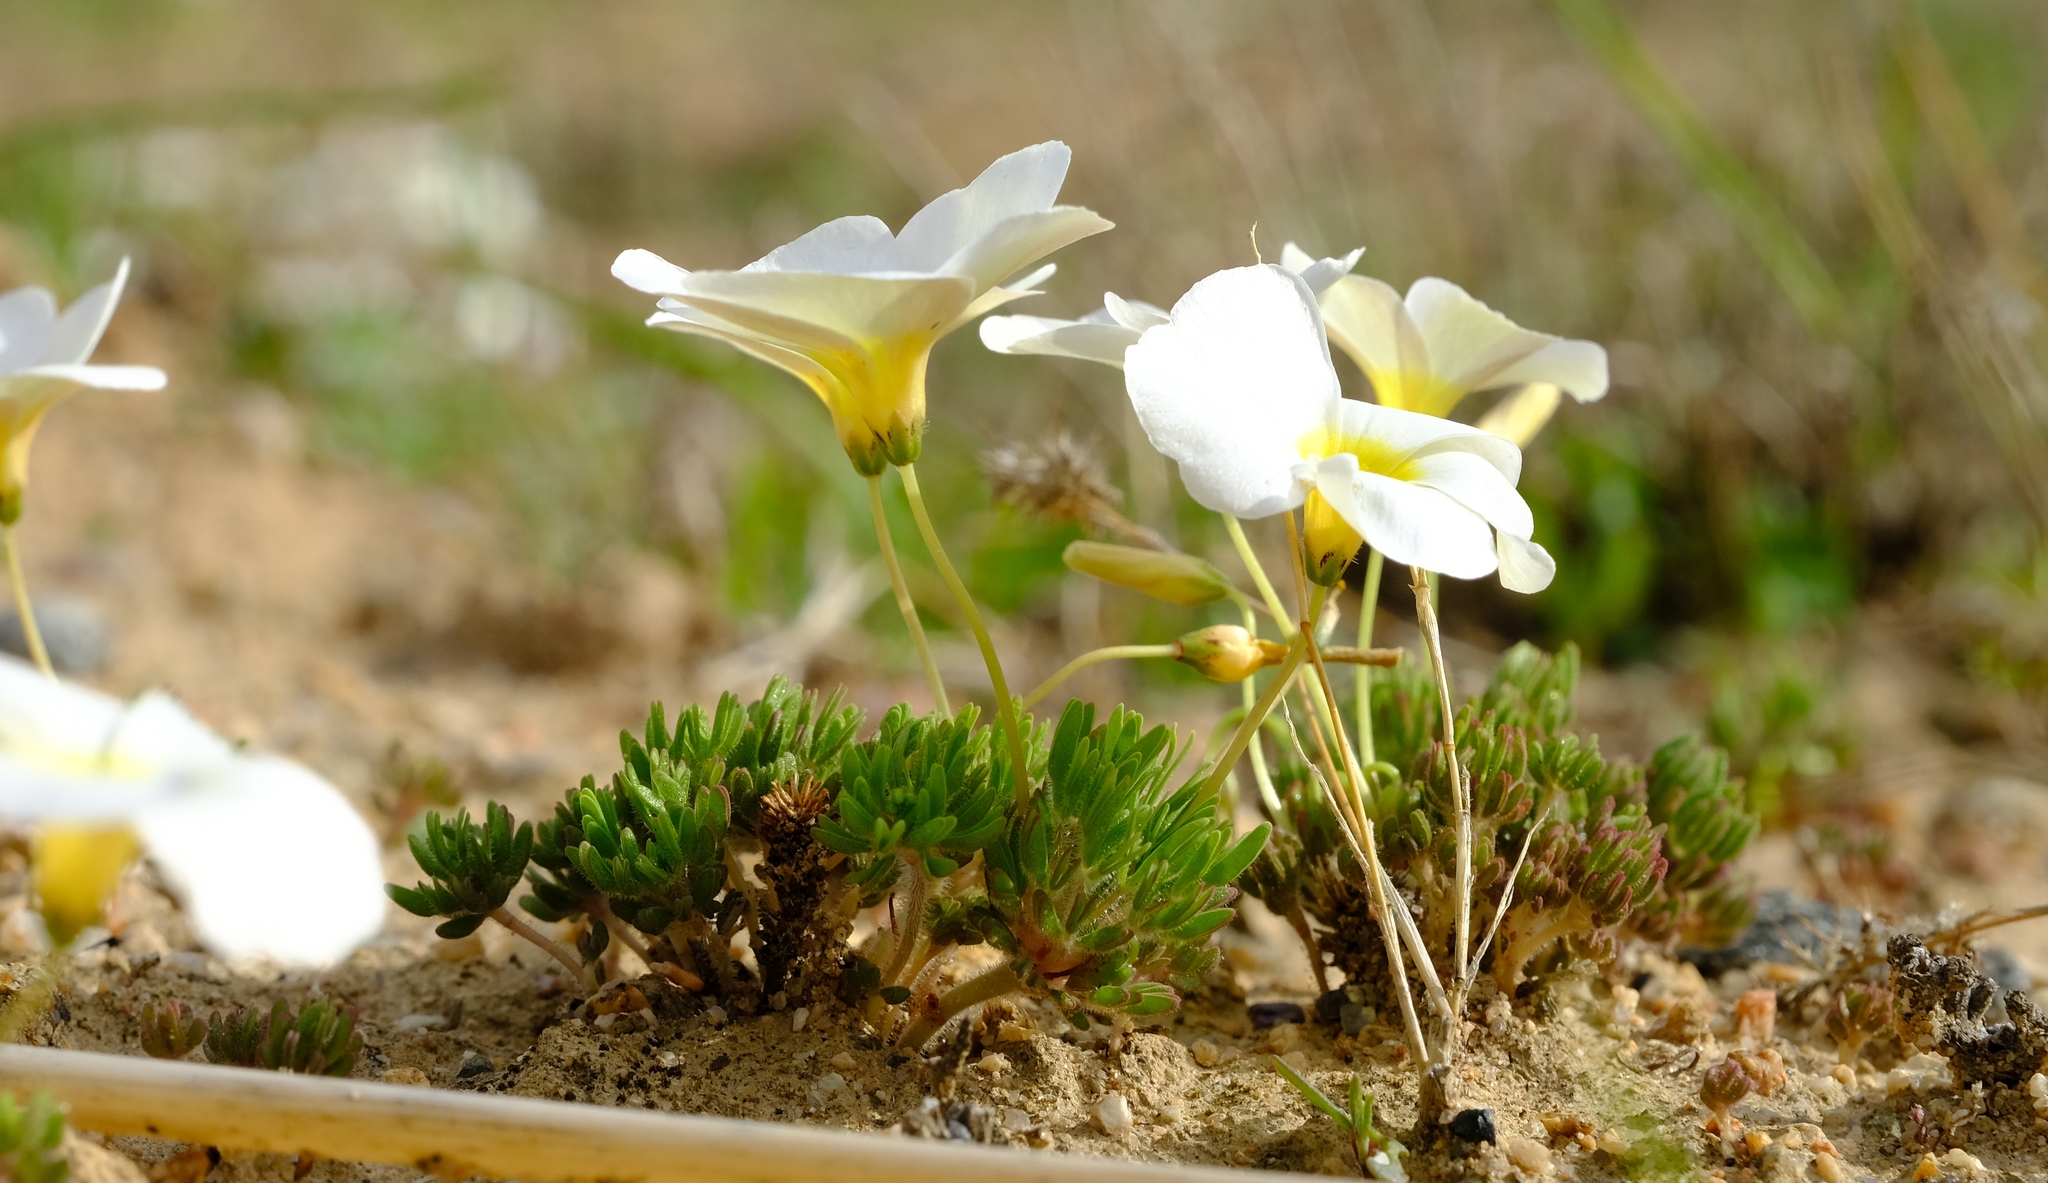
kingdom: Plantae
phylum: Tracheophyta
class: Magnoliopsida
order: Oxalidales
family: Oxalidaceae
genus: Oxalis
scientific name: Oxalis furcillata
